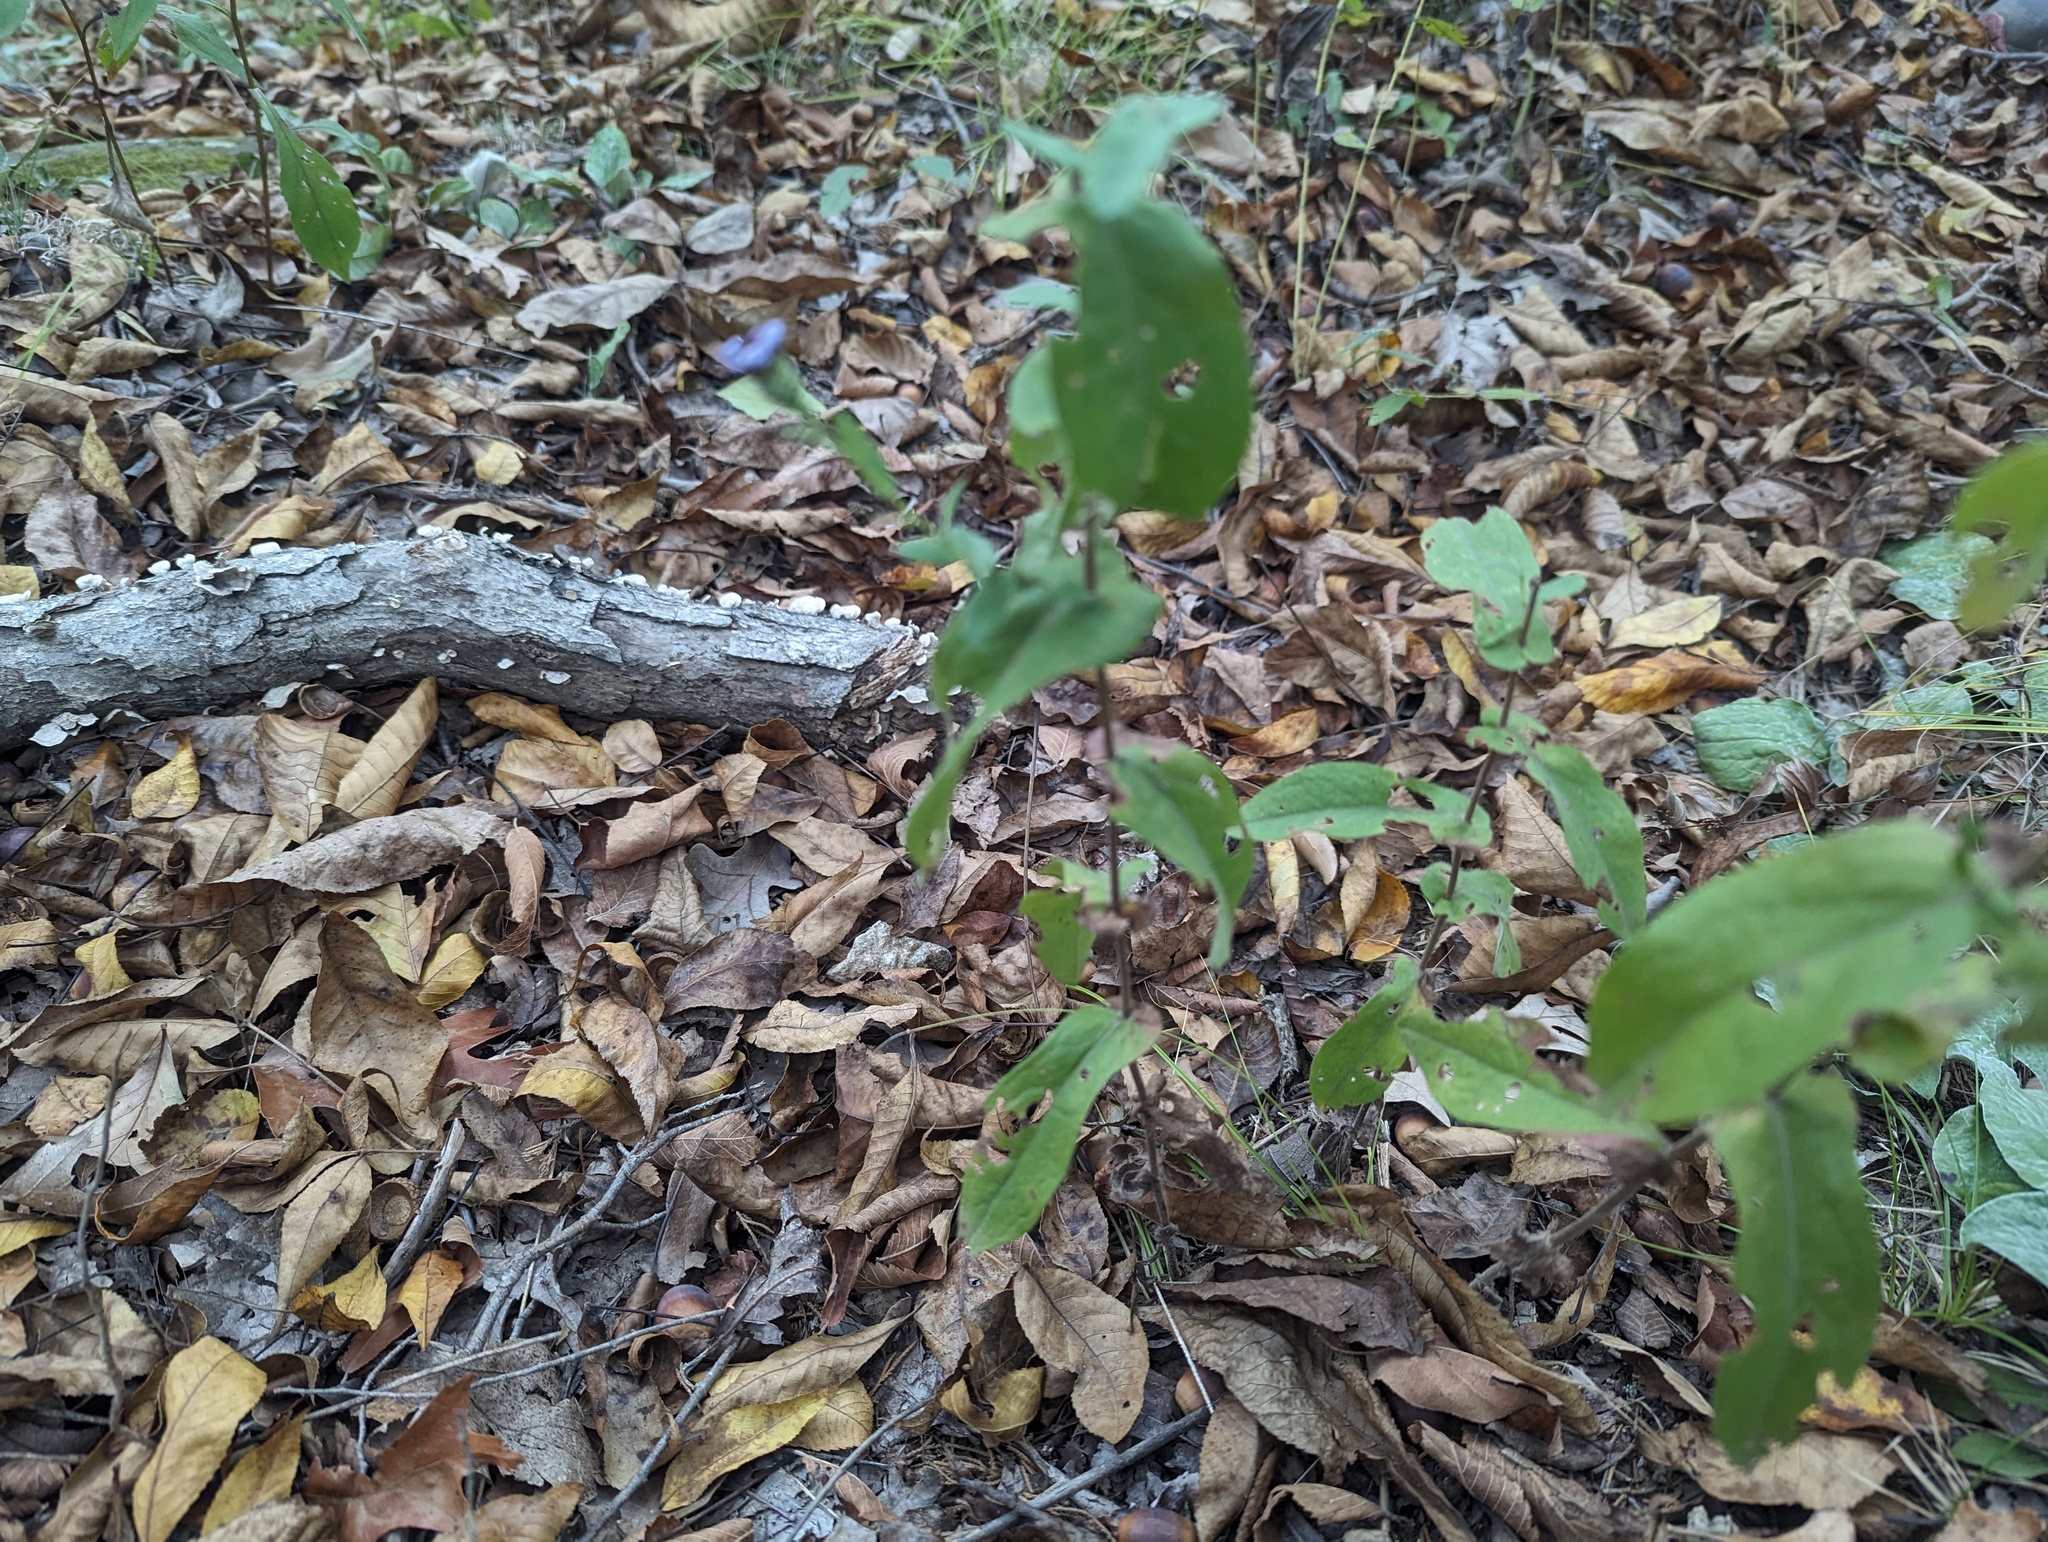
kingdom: Plantae
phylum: Tracheophyta
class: Magnoliopsida
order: Asterales
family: Asteraceae
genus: Symphyotrichum
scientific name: Symphyotrichum patens
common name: Late purple aster
